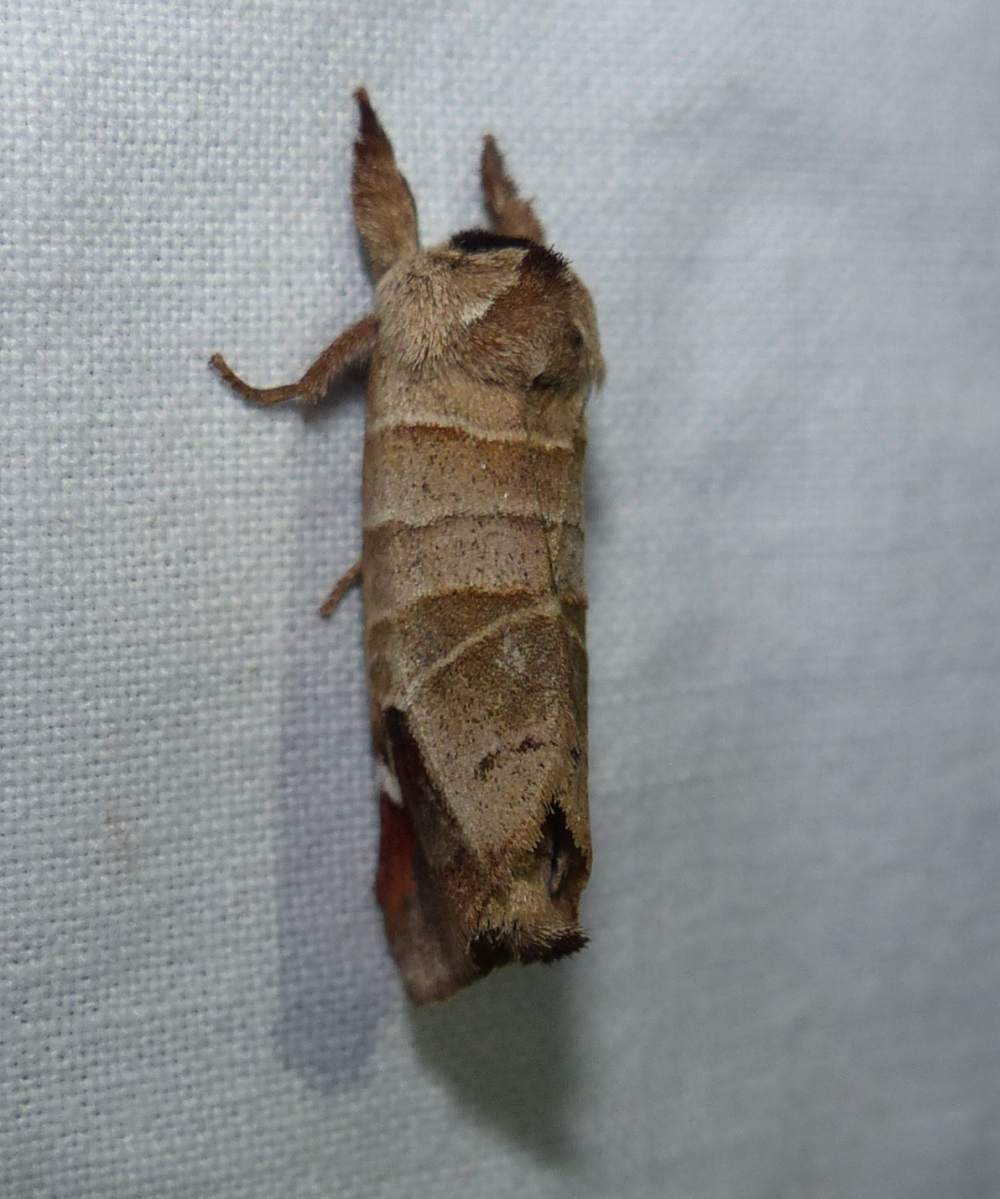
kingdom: Animalia
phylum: Arthropoda
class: Insecta
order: Lepidoptera
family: Notodontidae
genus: Clostera
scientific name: Clostera albosigma
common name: Sigmoid prominent
